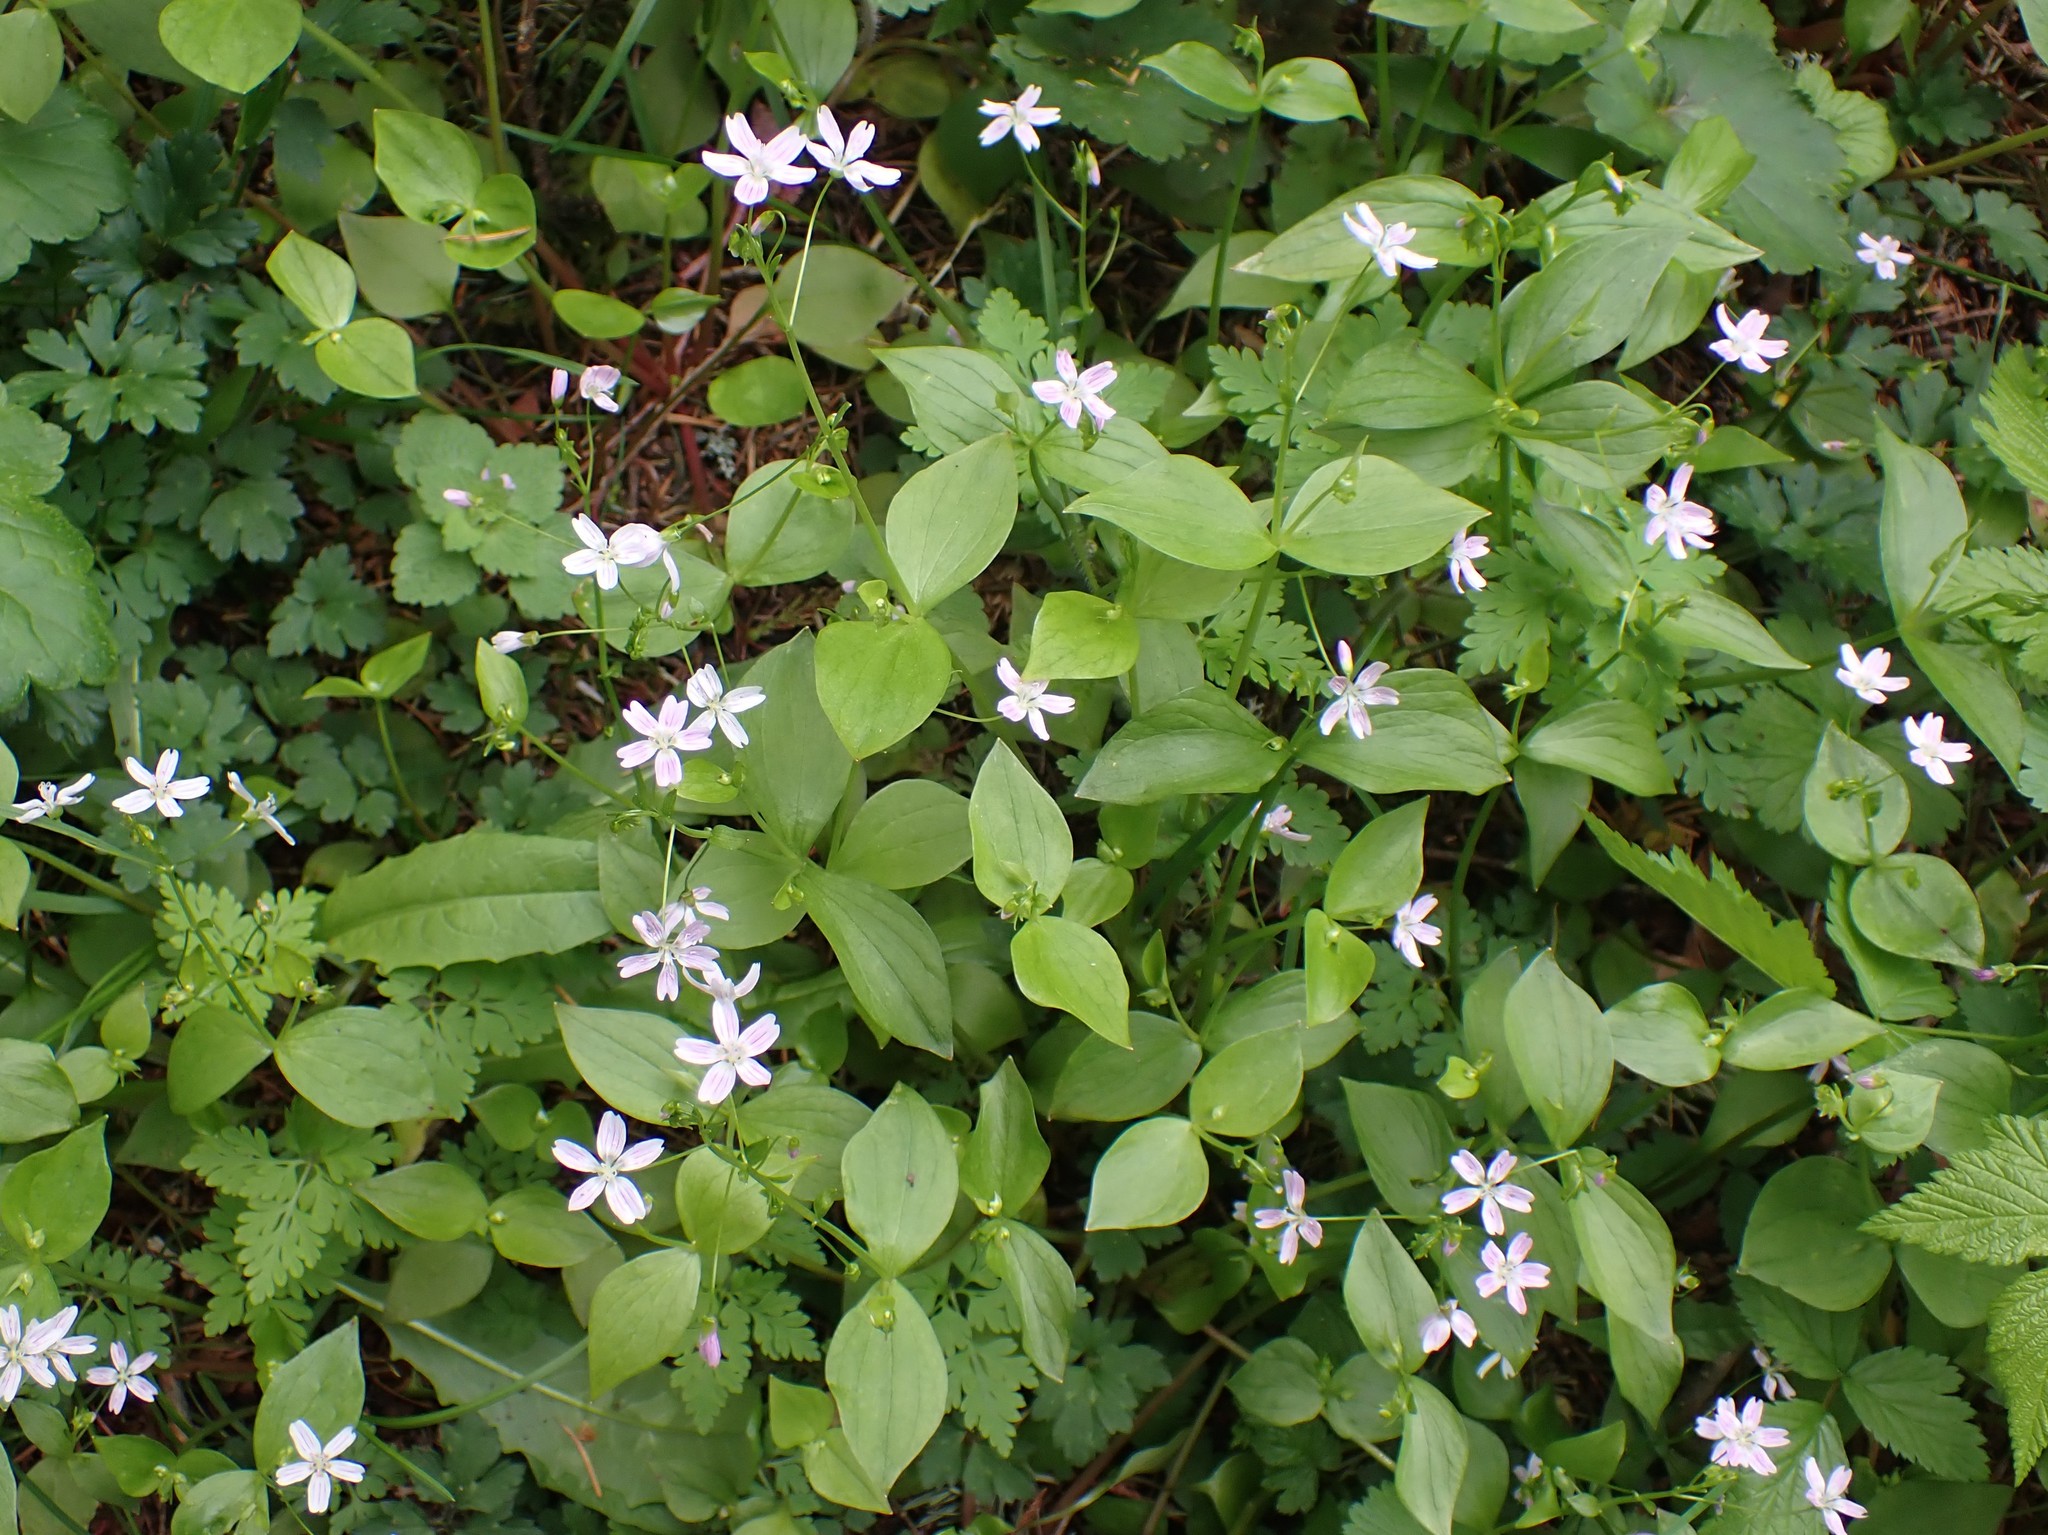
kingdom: Plantae
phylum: Tracheophyta
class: Magnoliopsida
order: Caryophyllales
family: Montiaceae
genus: Claytonia
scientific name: Claytonia sibirica
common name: Pink purslane
